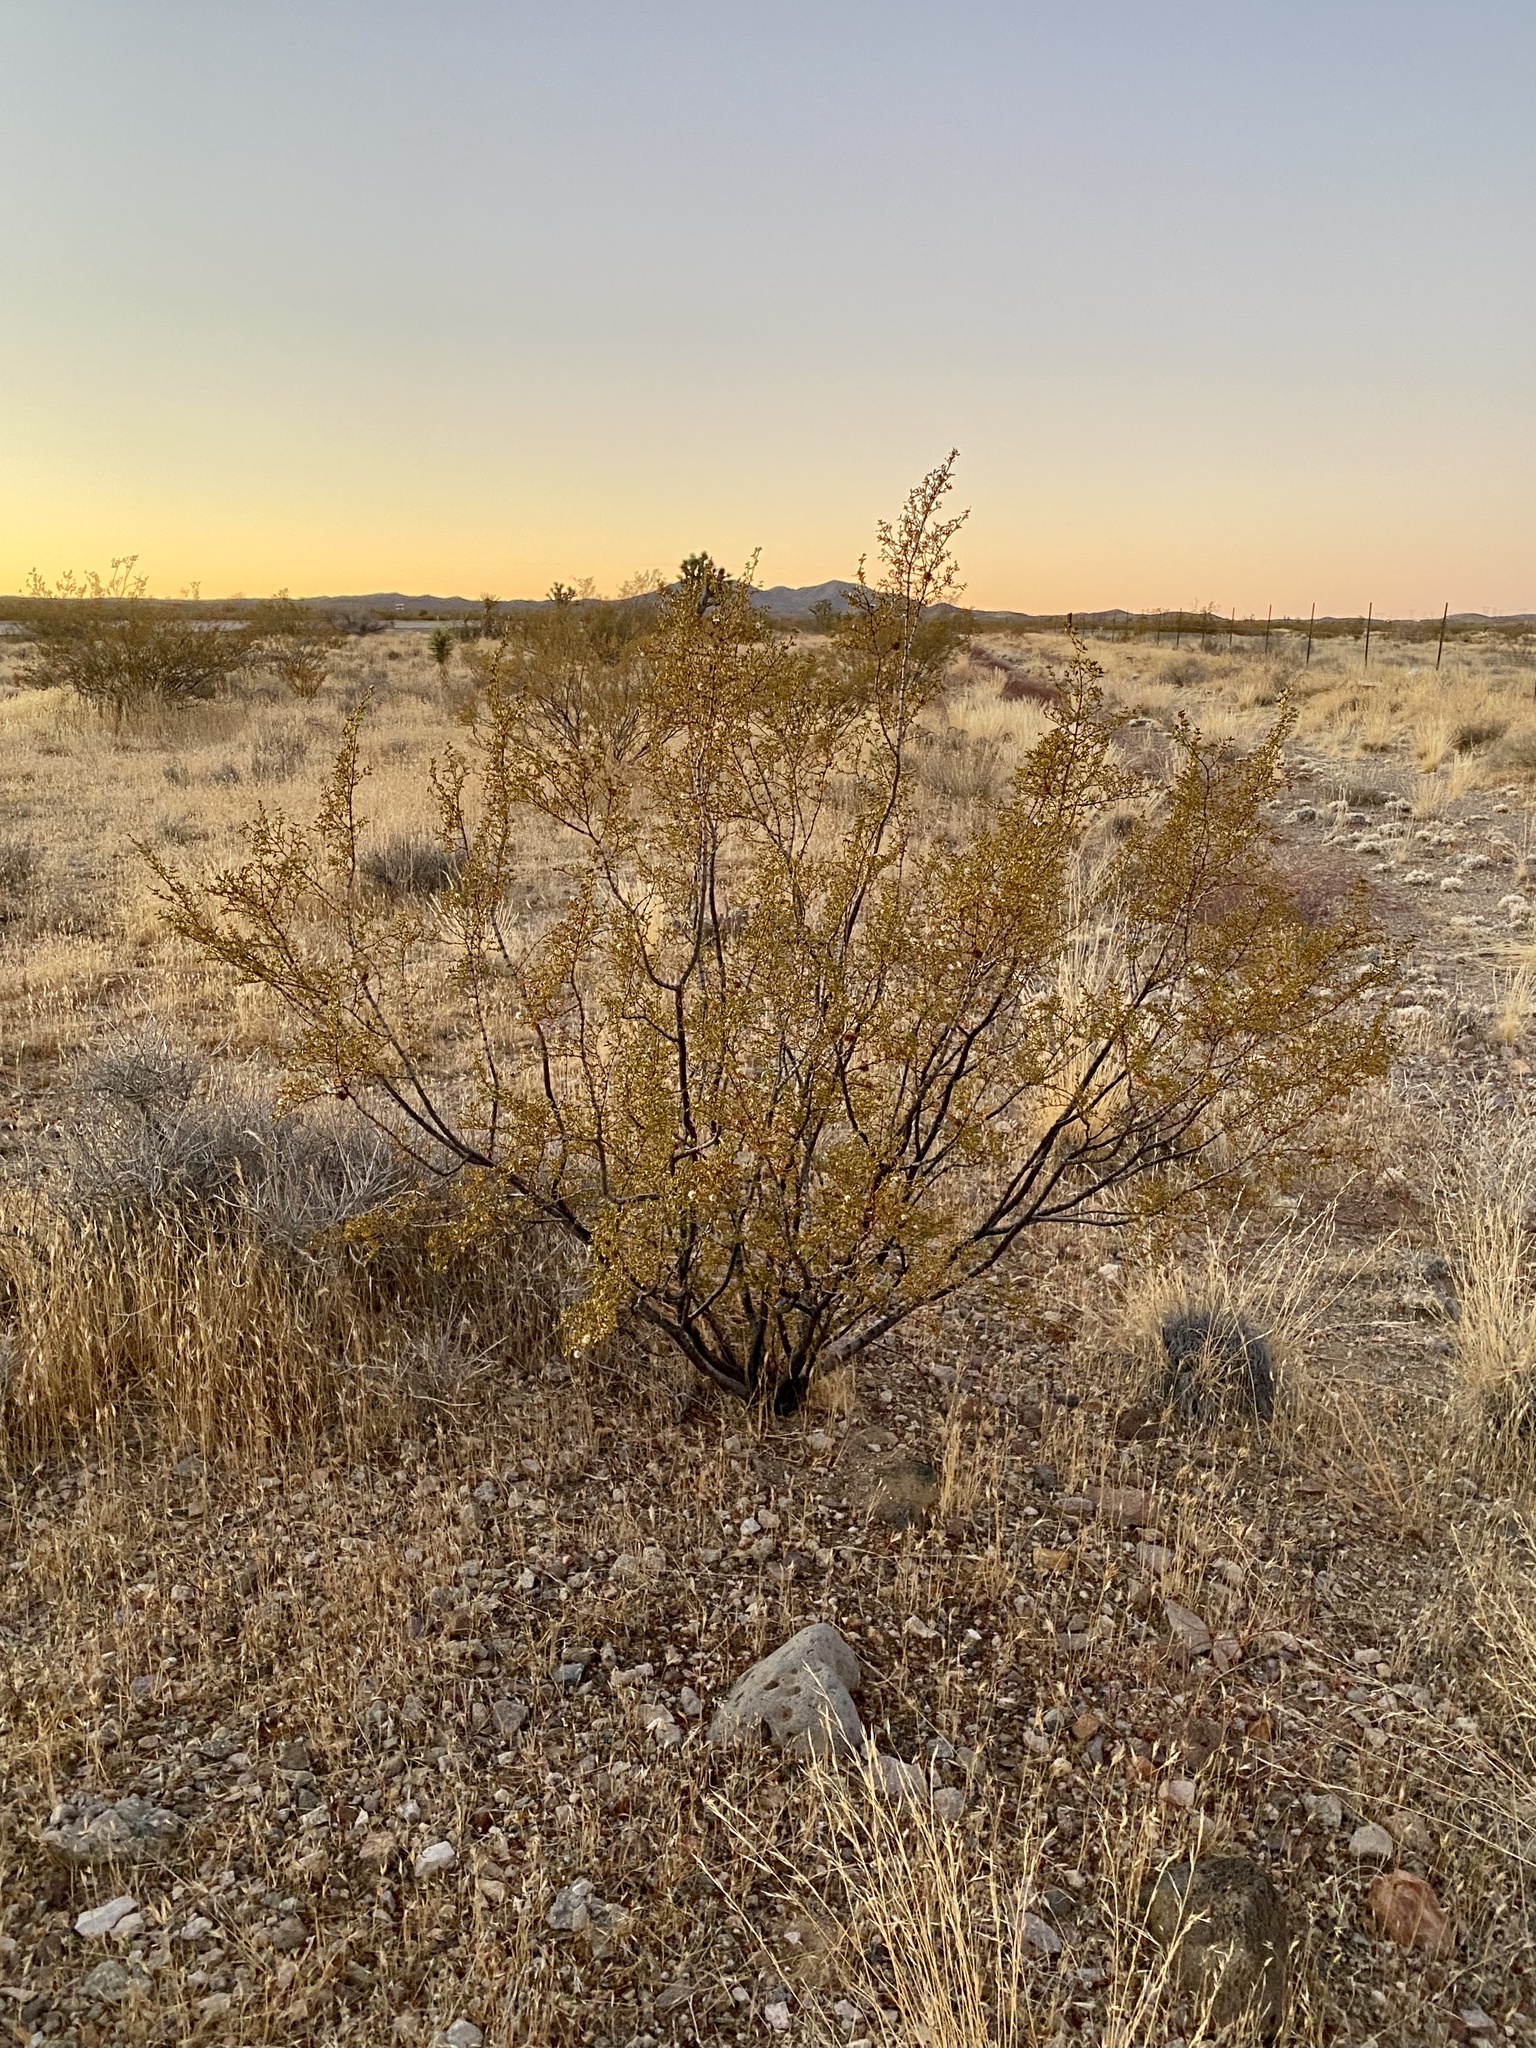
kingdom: Plantae
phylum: Tracheophyta
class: Magnoliopsida
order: Zygophyllales
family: Zygophyllaceae
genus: Larrea
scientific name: Larrea tridentata
